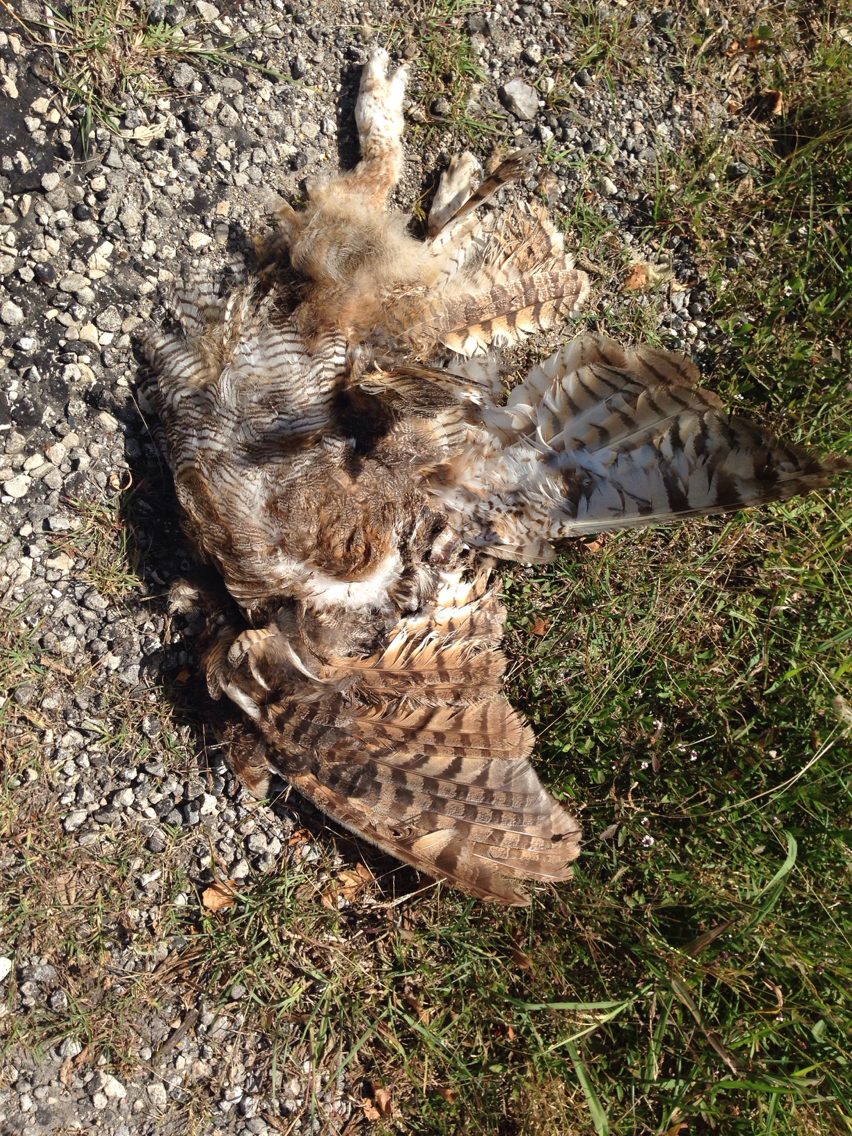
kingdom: Animalia
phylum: Chordata
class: Aves
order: Strigiformes
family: Strigidae
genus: Bubo
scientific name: Bubo virginianus
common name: Great horned owl
